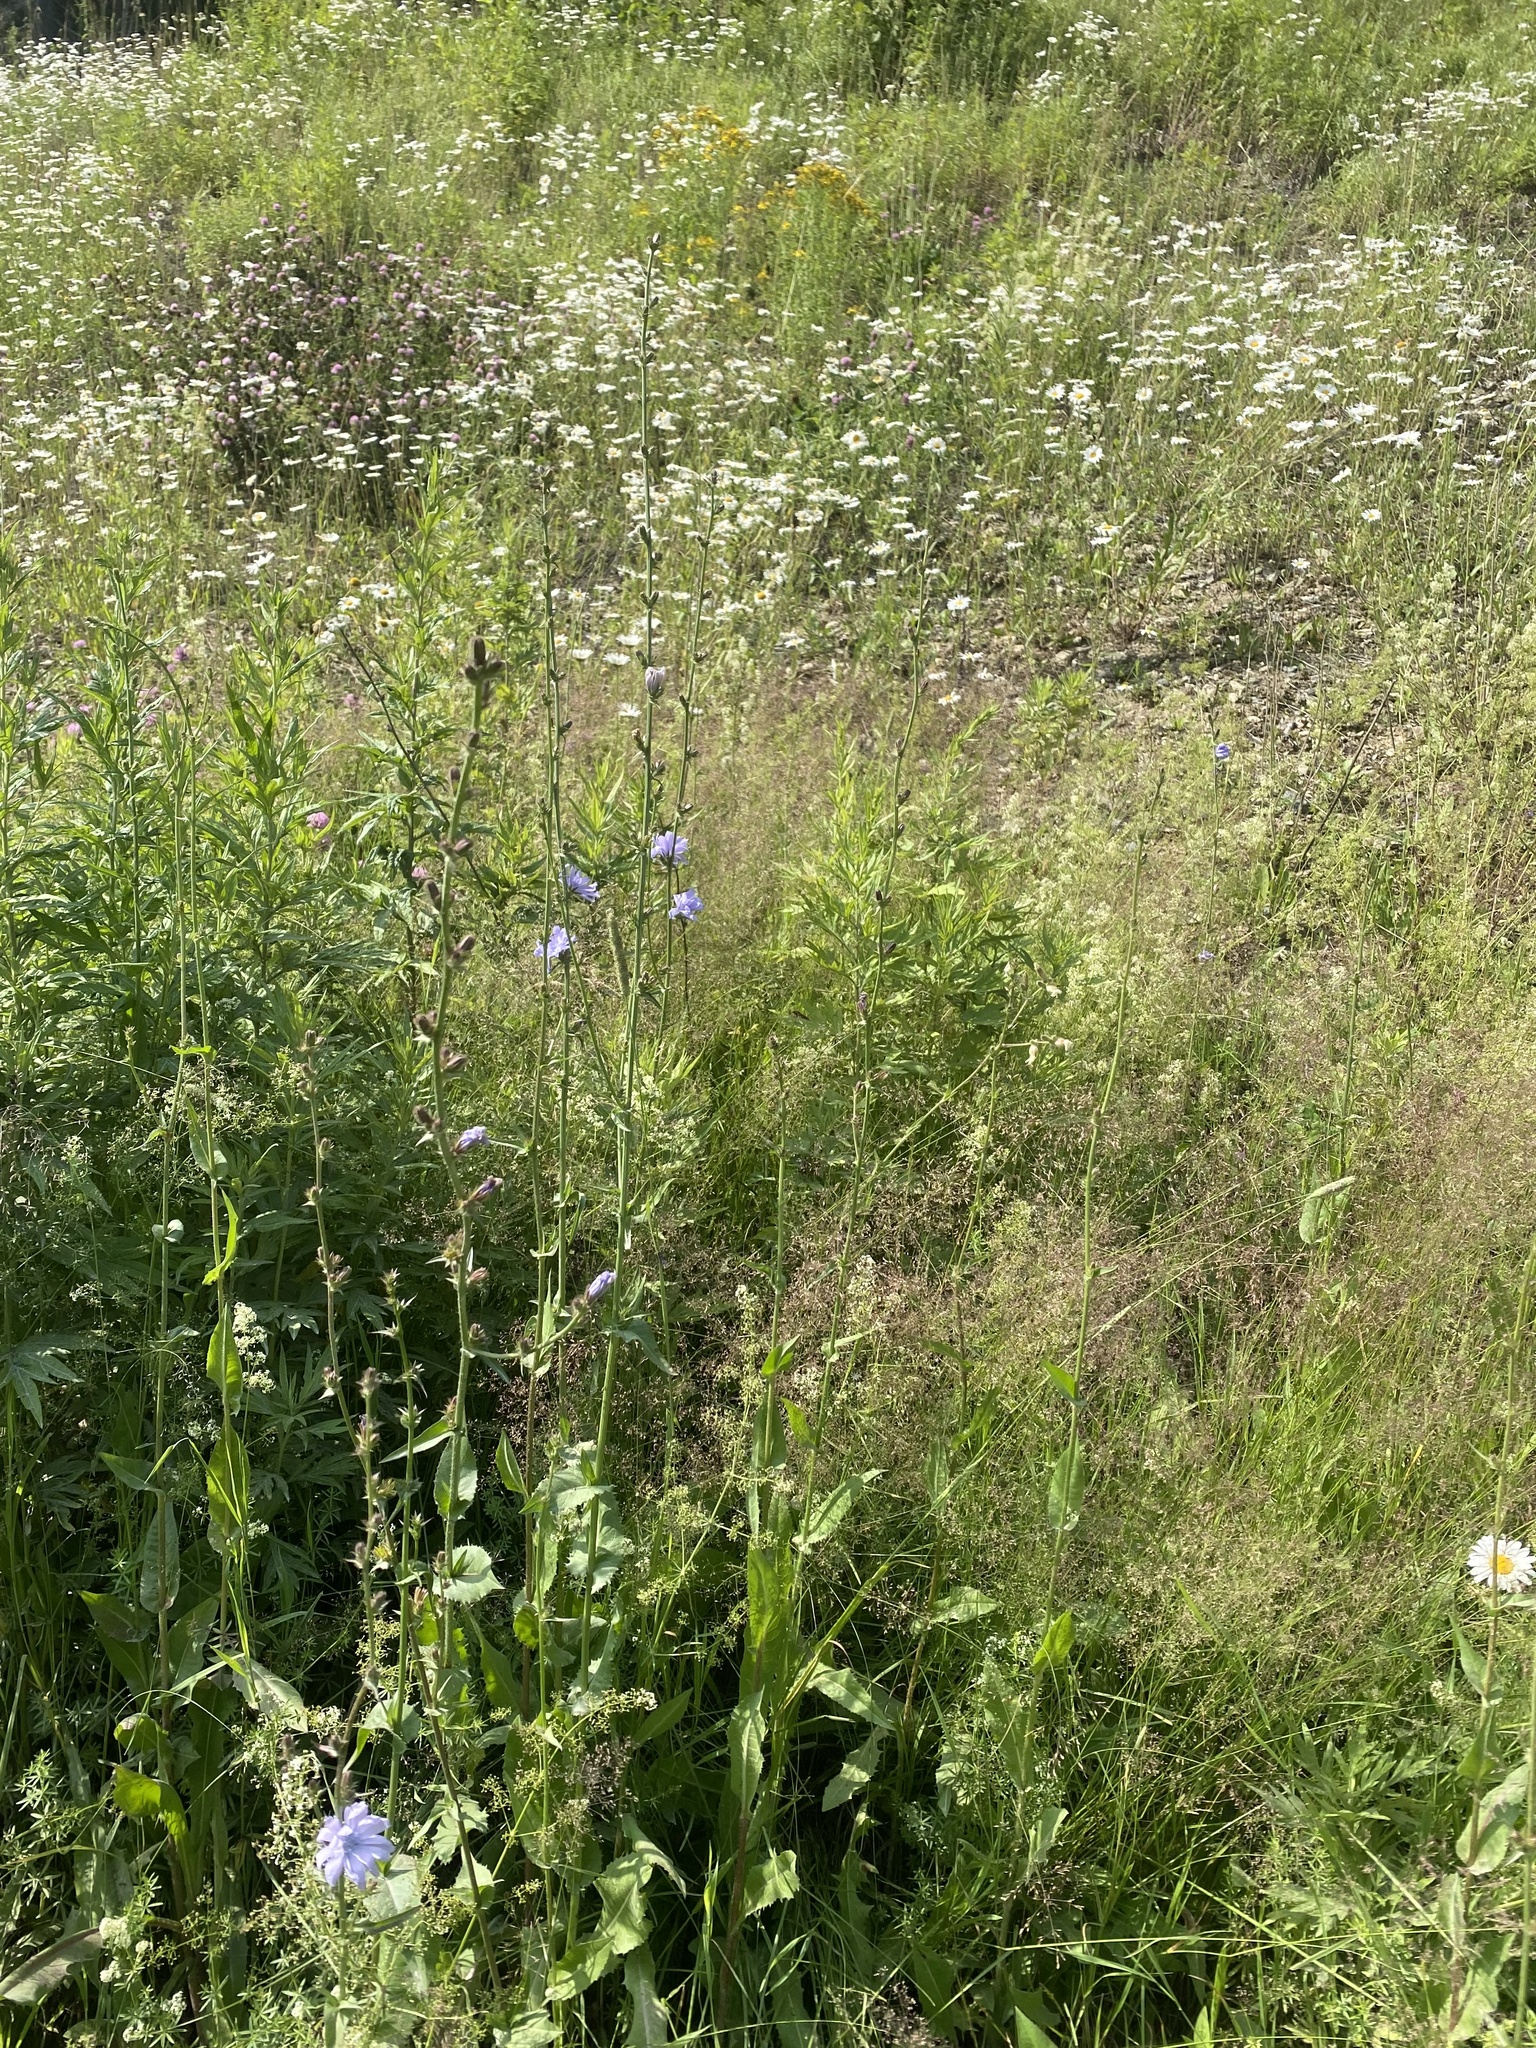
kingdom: Plantae
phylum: Tracheophyta
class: Magnoliopsida
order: Asterales
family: Asteraceae
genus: Cichorium
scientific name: Cichorium intybus
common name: Chicory
